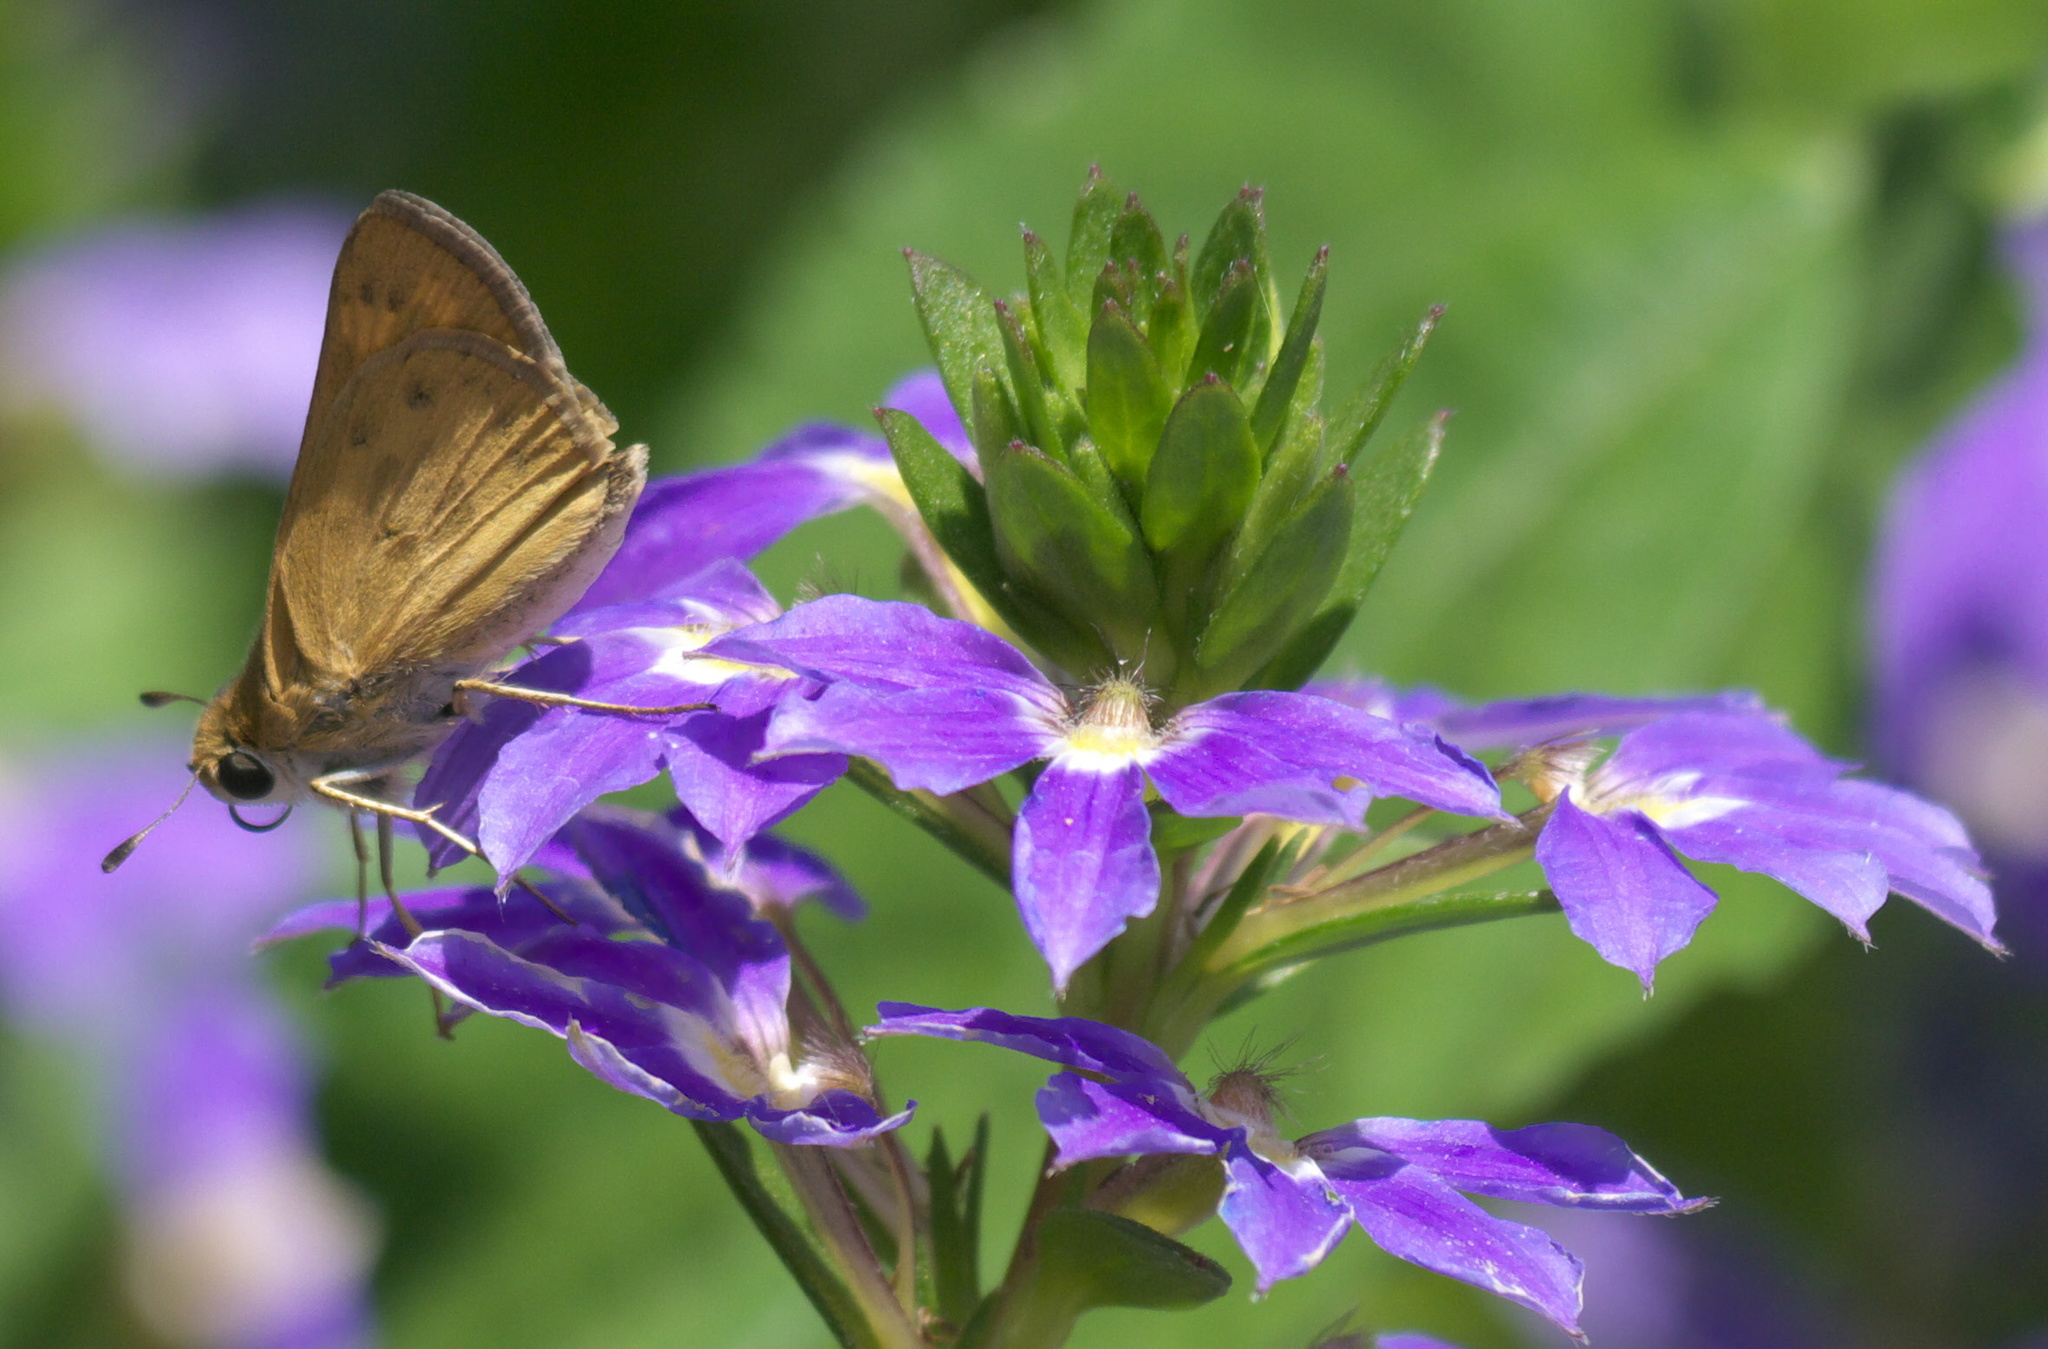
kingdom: Animalia
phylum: Arthropoda
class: Insecta
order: Lepidoptera
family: Hesperiidae
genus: Hylephila
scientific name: Hylephila phyleus
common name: Fiery skipper
